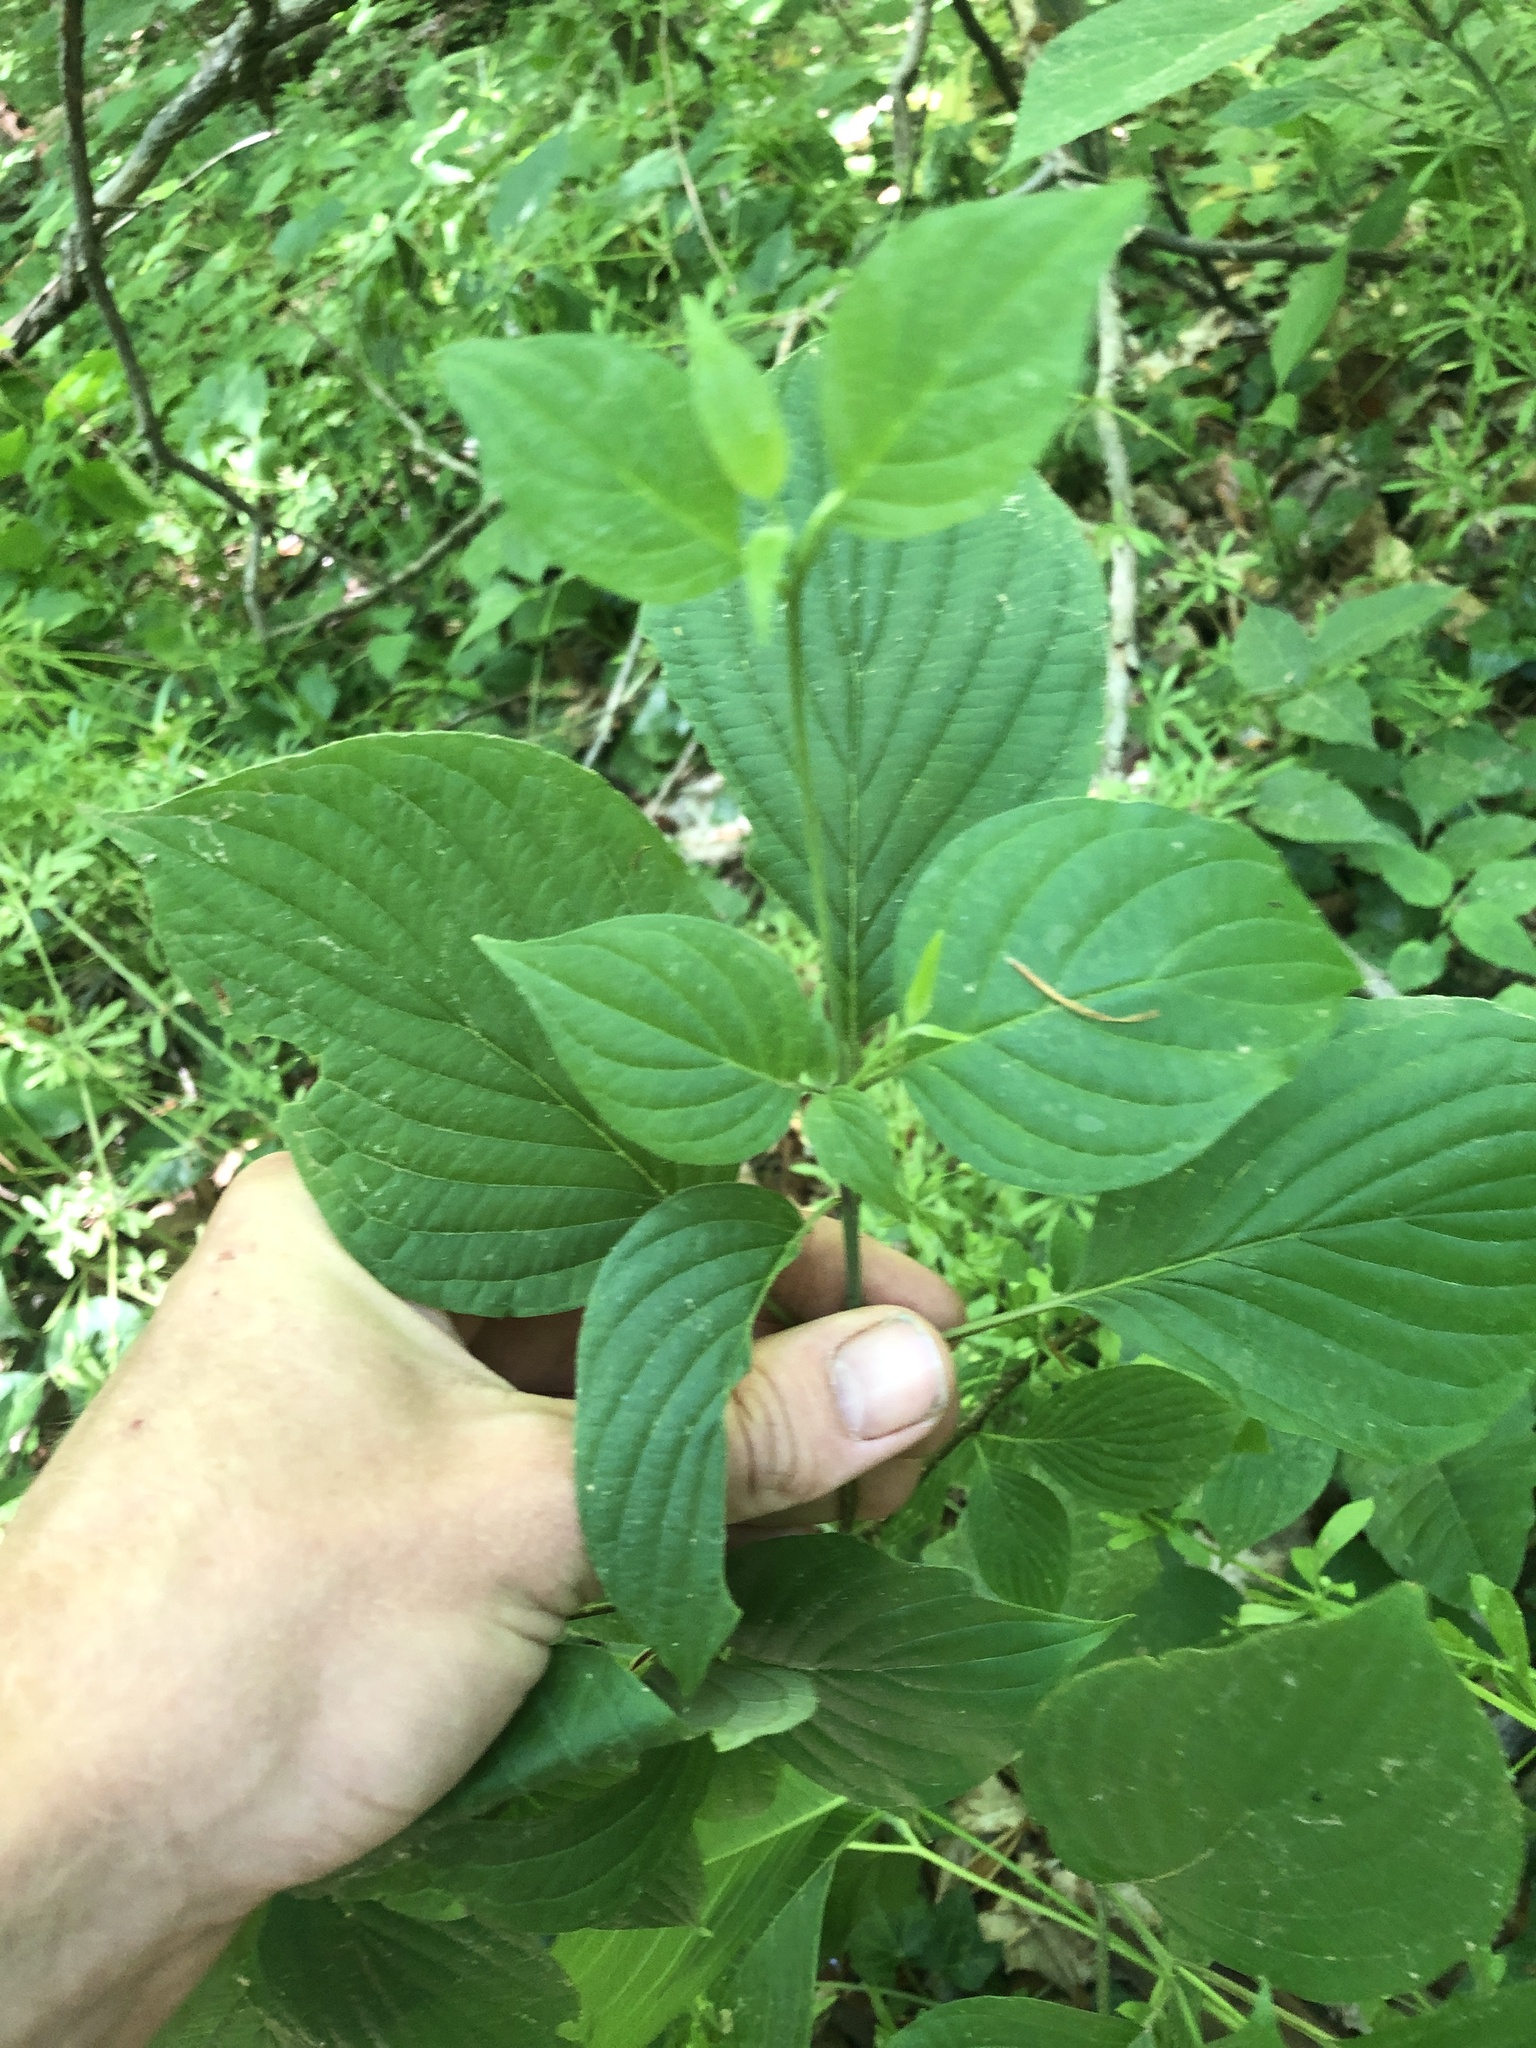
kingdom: Plantae
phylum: Tracheophyta
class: Magnoliopsida
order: Cornales
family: Cornaceae
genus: Cornus
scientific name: Cornus alternifolia
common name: Pagoda dogwood
